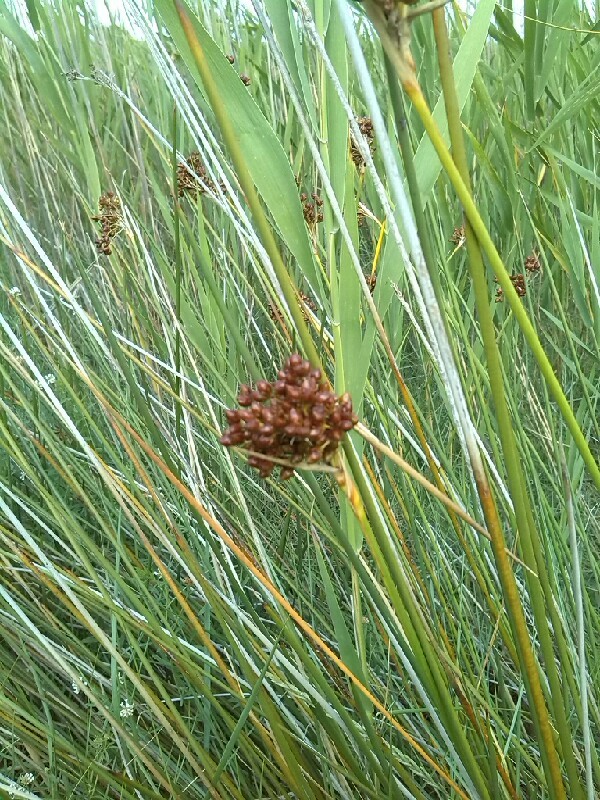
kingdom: Plantae
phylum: Tracheophyta
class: Liliopsida
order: Poales
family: Juncaceae
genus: Juncus
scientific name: Juncus acutus
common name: Sharp rush
